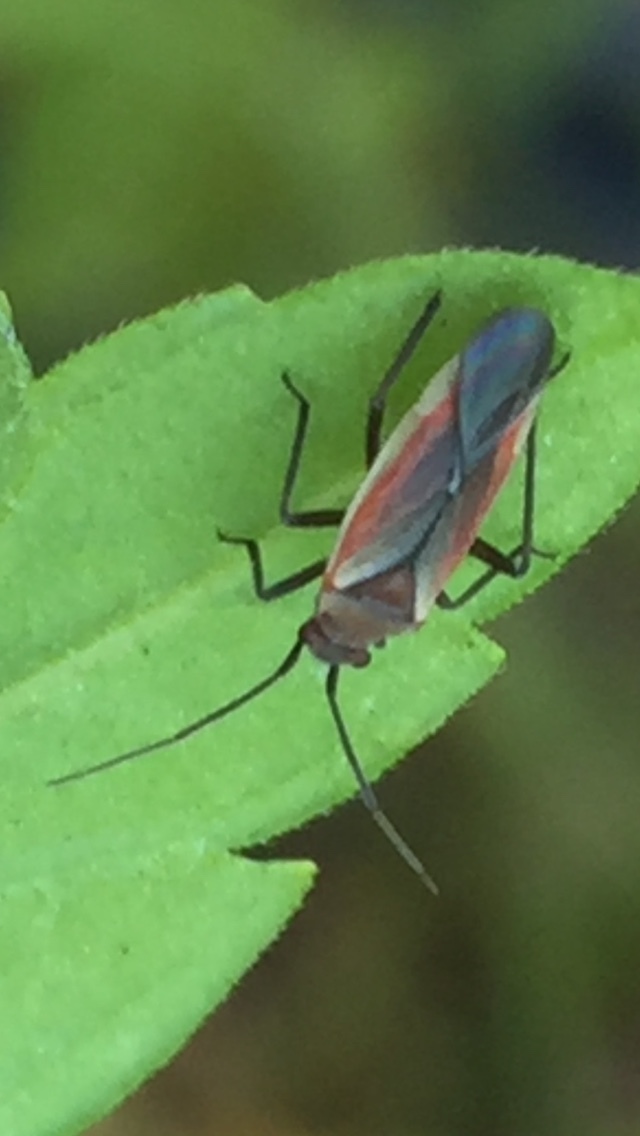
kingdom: Animalia
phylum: Arthropoda
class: Insecta
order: Hemiptera
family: Miridae
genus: Lopidea
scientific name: Lopidea marginata
